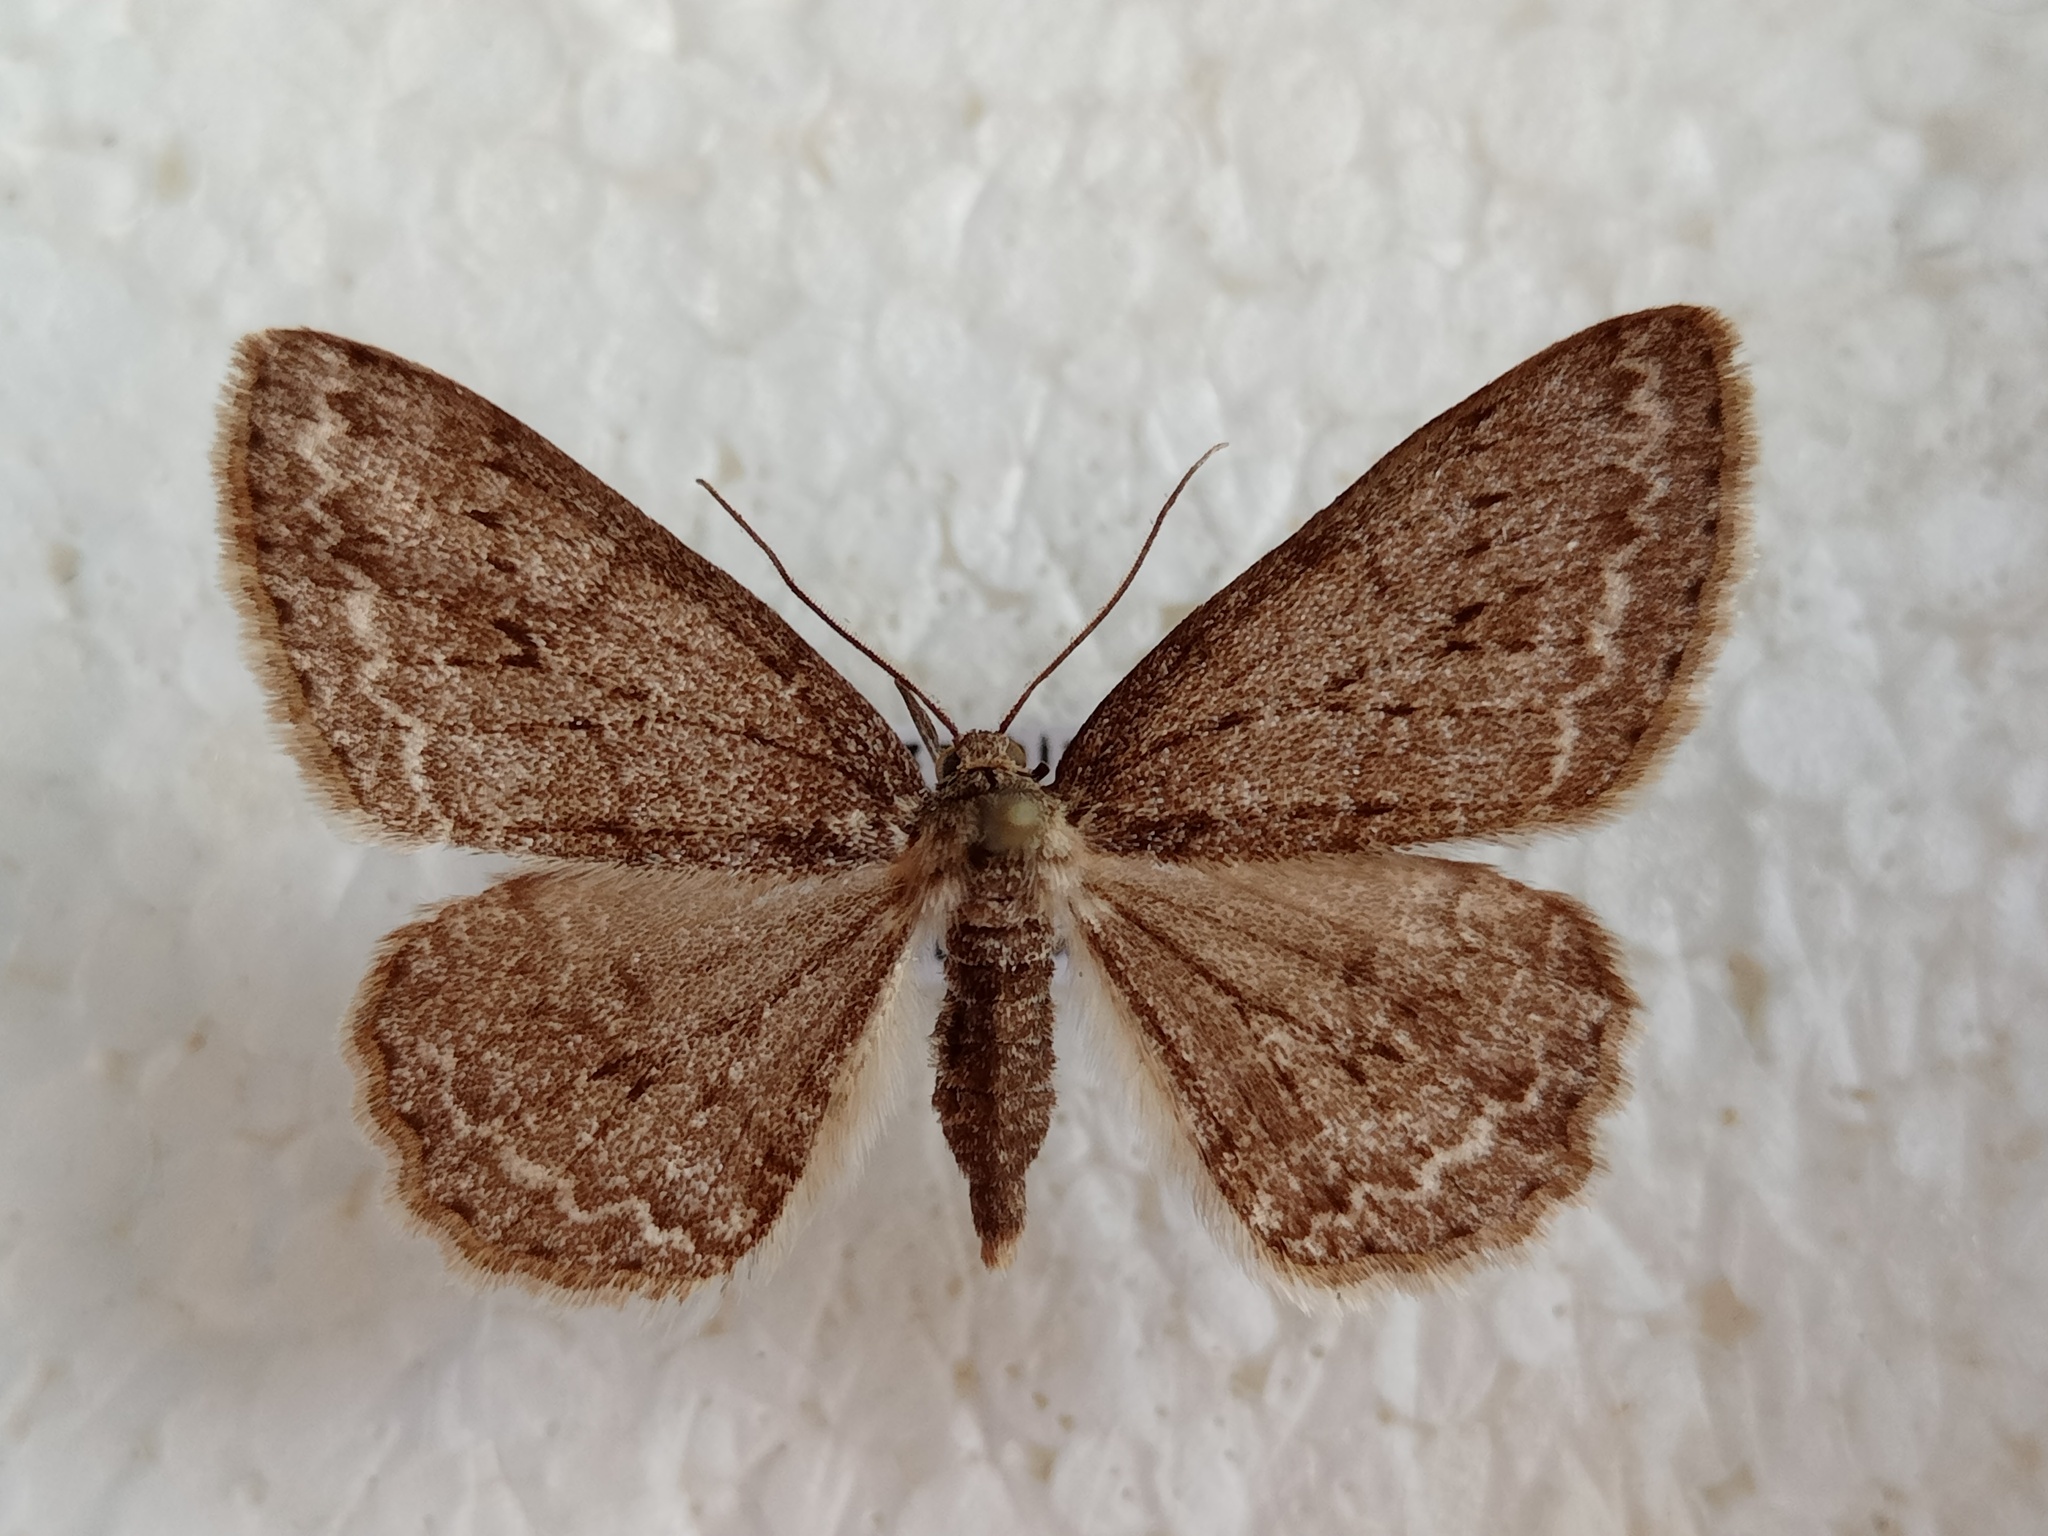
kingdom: Animalia
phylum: Arthropoda
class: Insecta
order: Lepidoptera
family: Geometridae
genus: Ectropis
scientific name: Ectropis crepuscularia
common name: Engrailed
